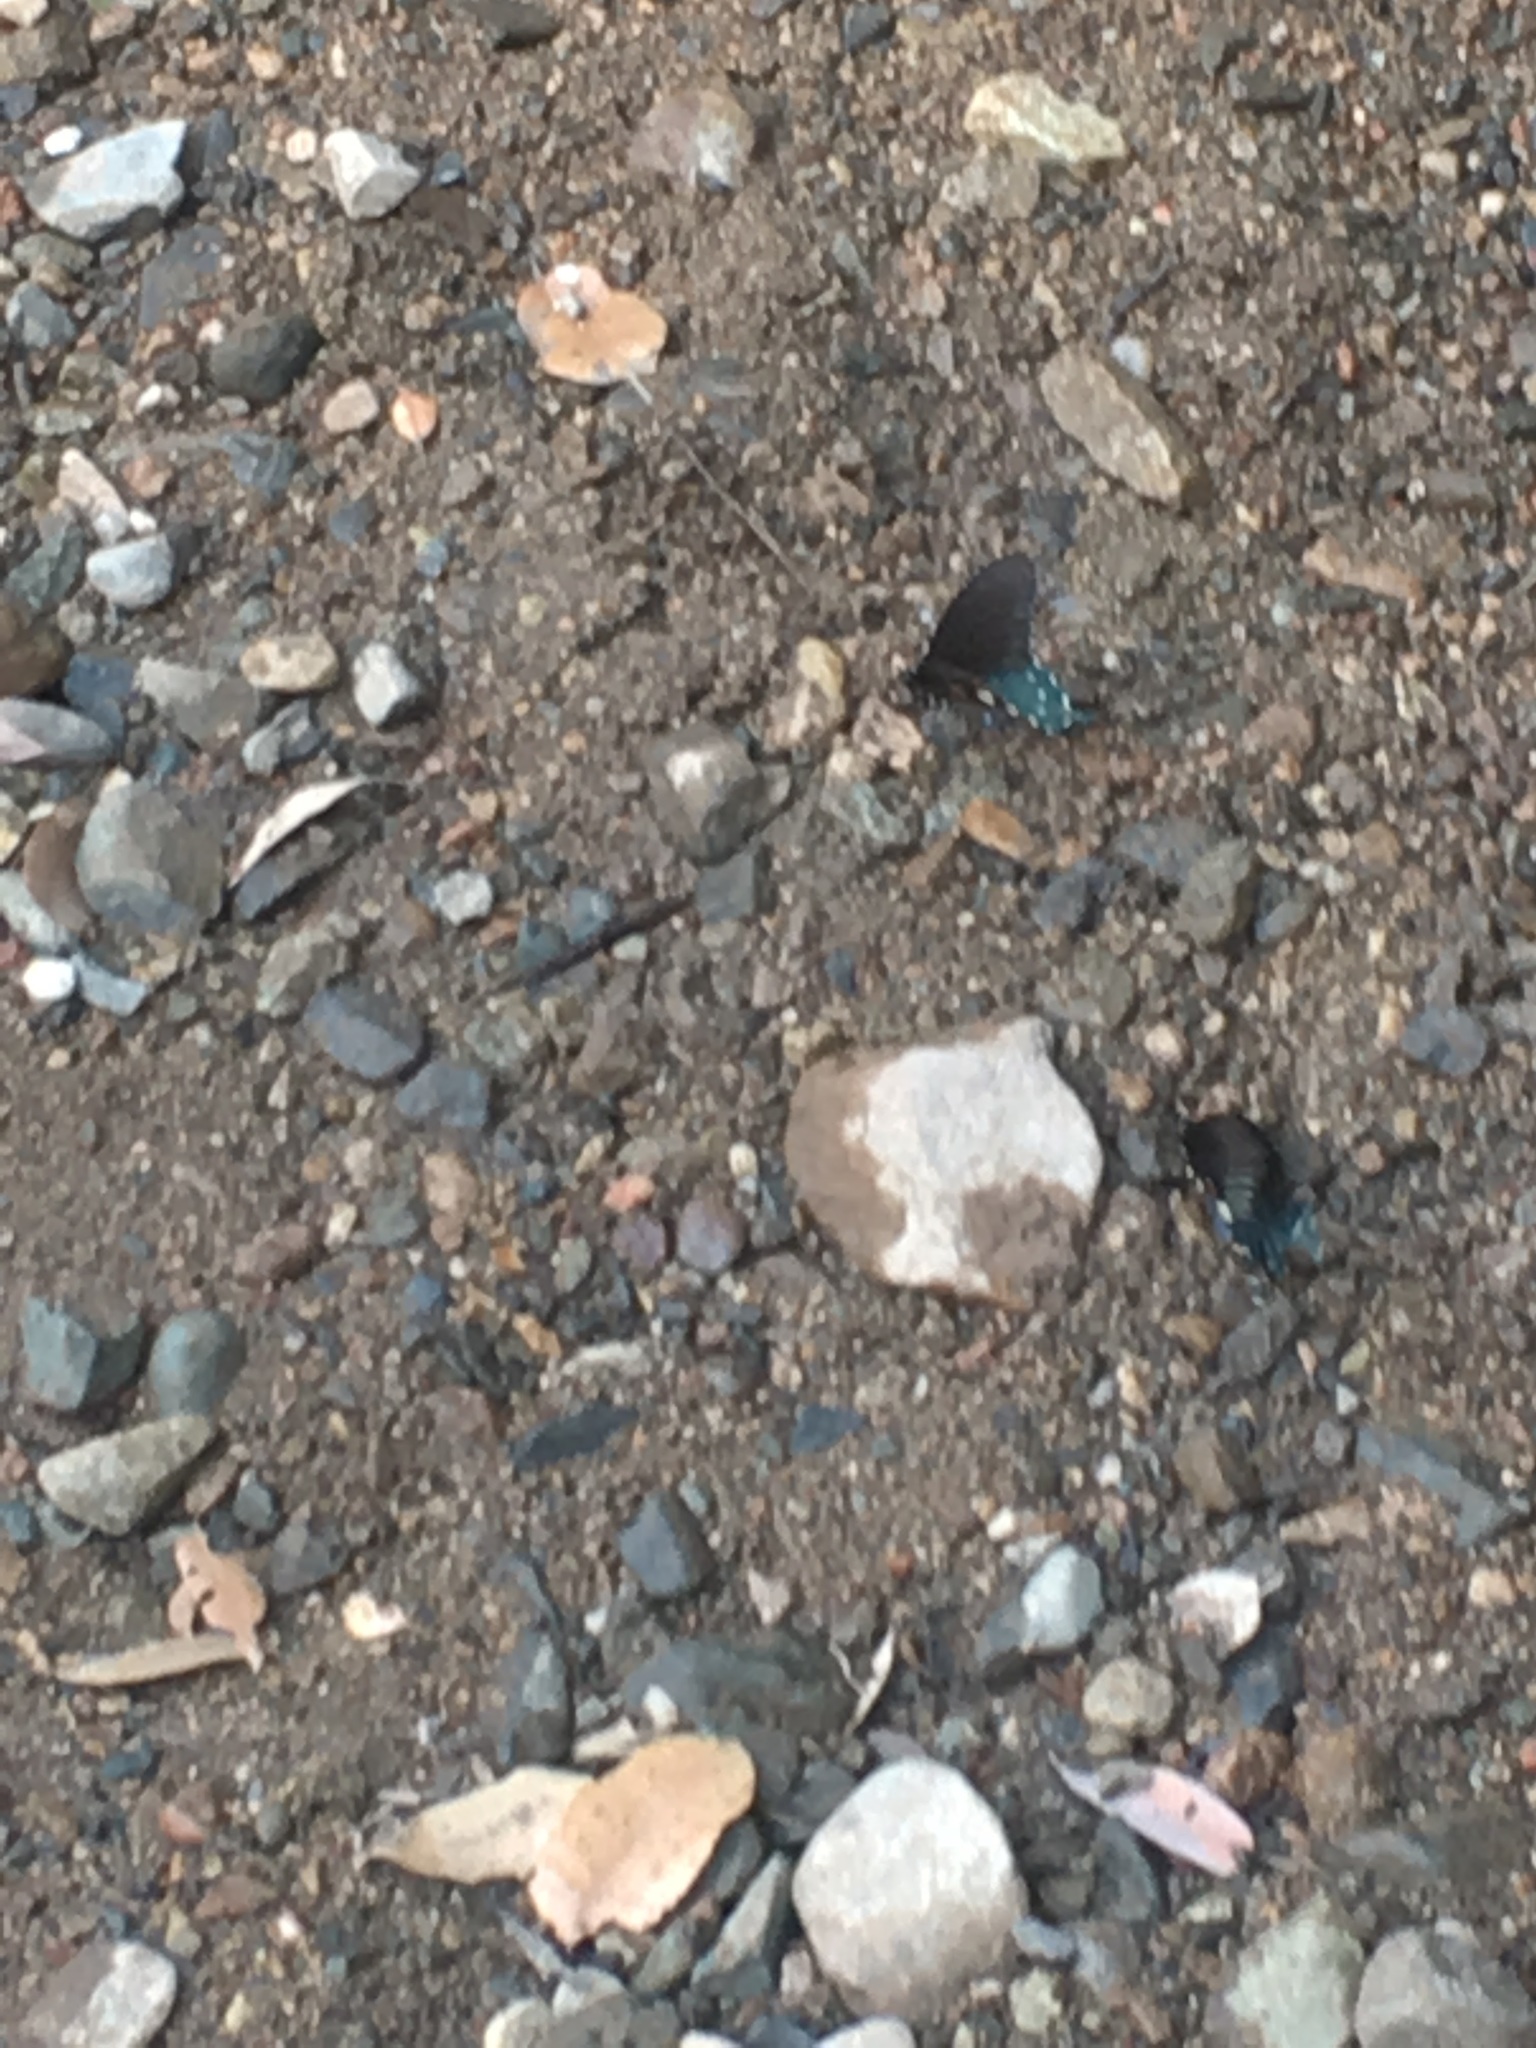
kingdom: Animalia
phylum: Arthropoda
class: Insecta
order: Lepidoptera
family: Papilionidae
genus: Battus
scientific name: Battus philenor
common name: Pipevine swallowtail
